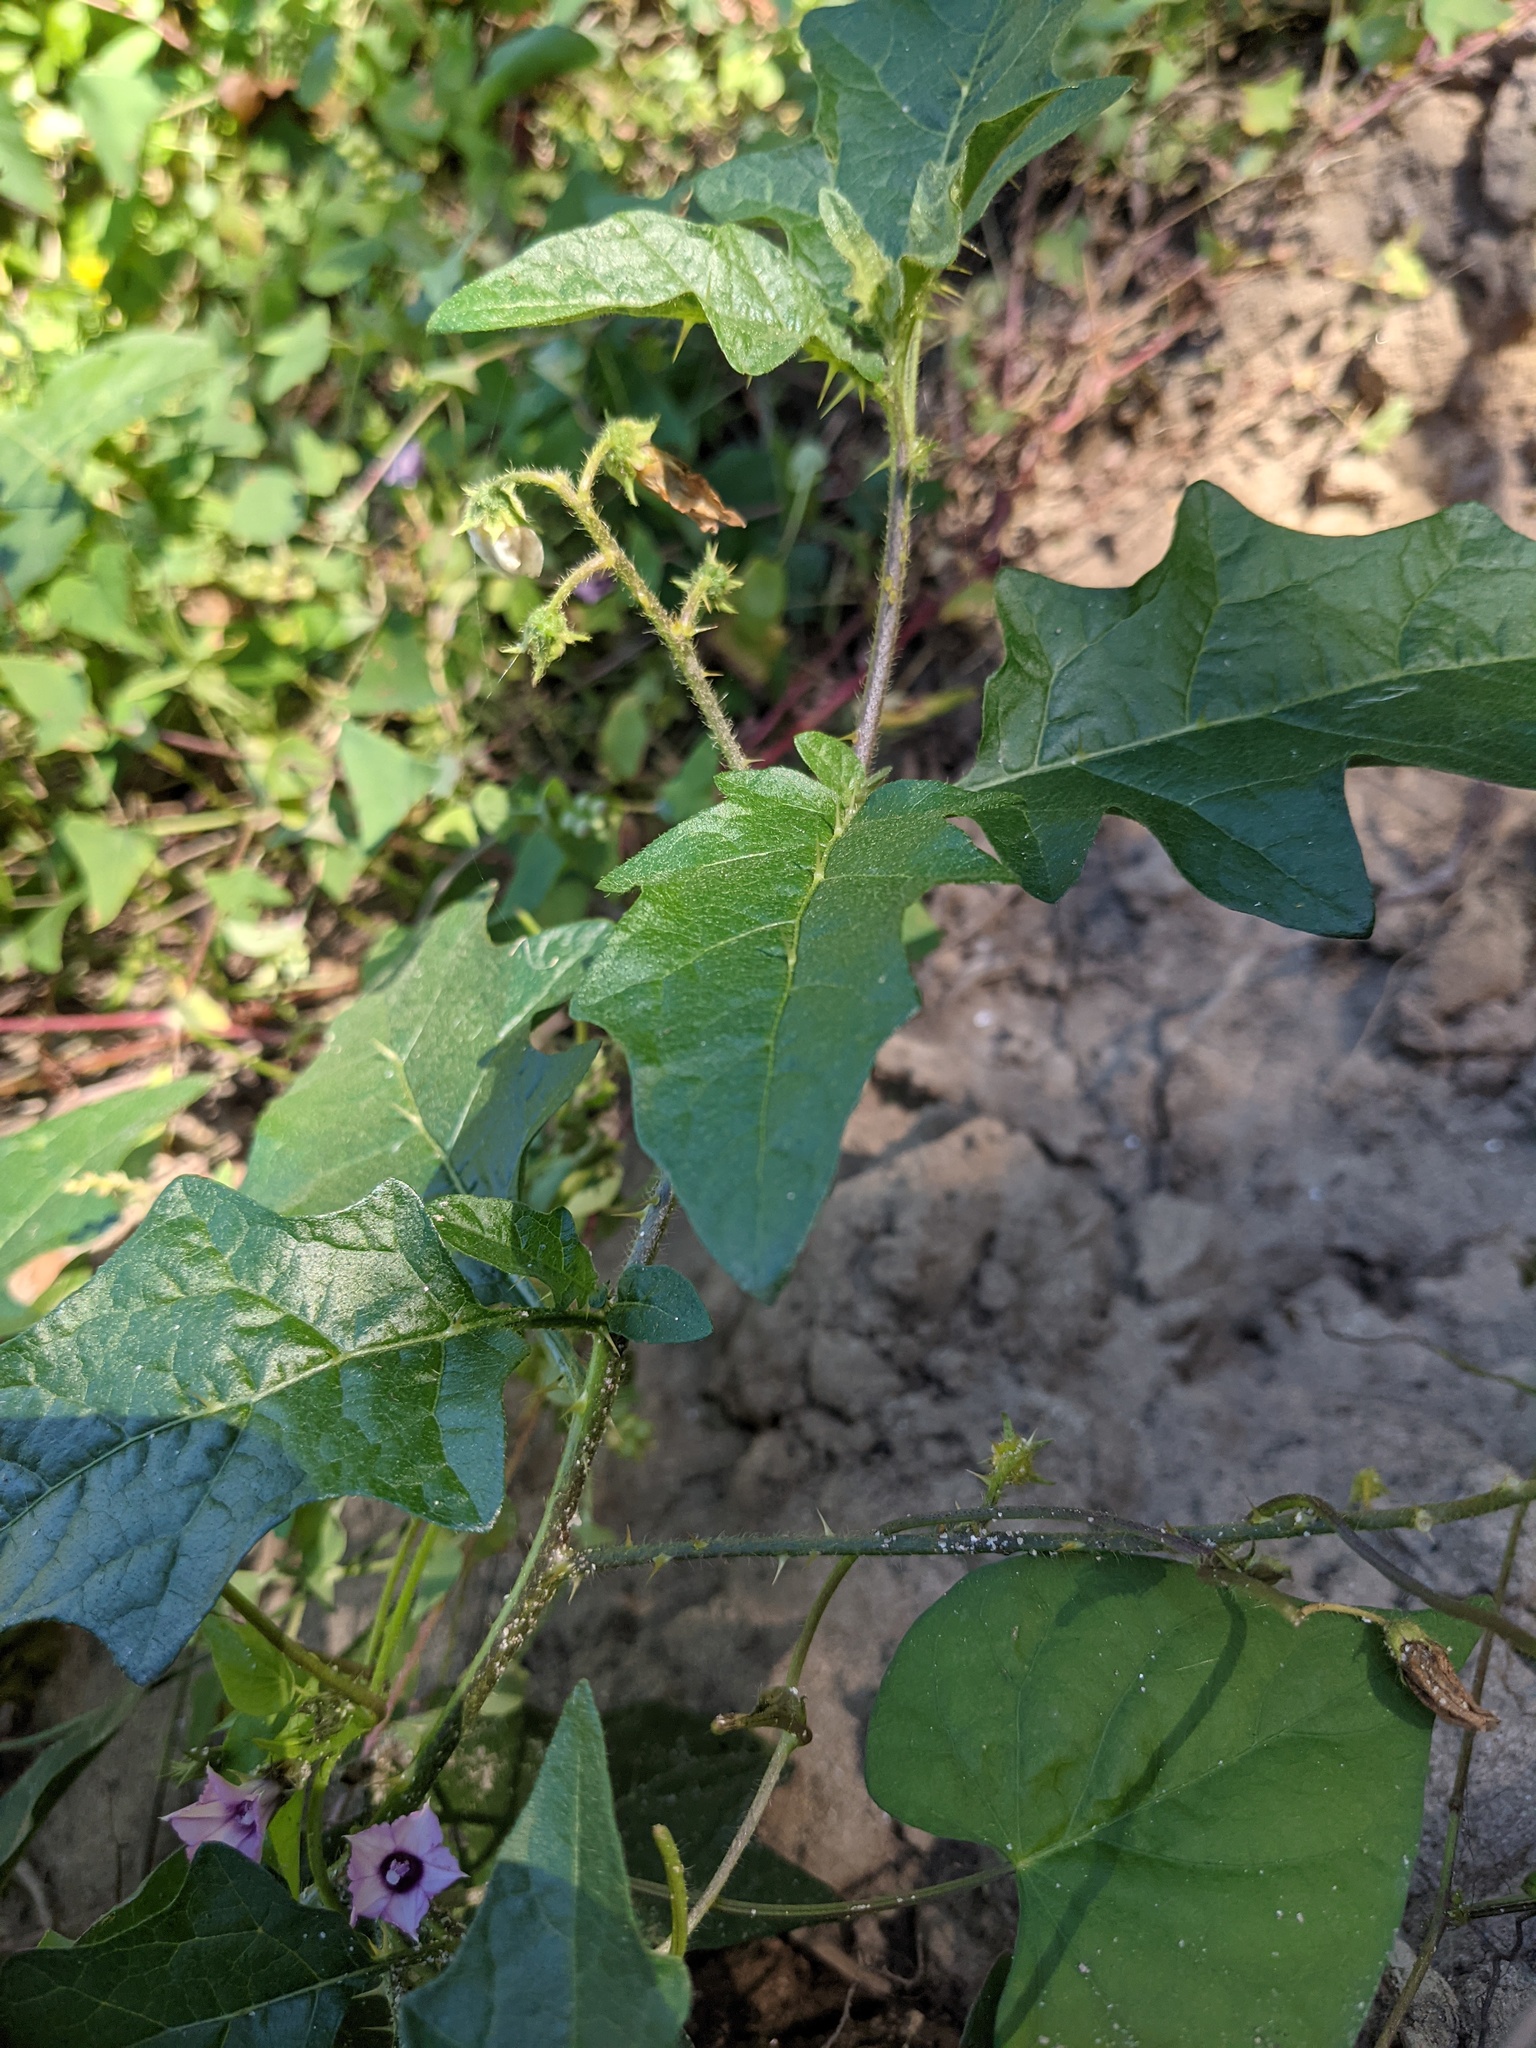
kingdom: Plantae
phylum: Tracheophyta
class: Magnoliopsida
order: Solanales
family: Solanaceae
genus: Solanum
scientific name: Solanum carolinense
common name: Horse-nettle
